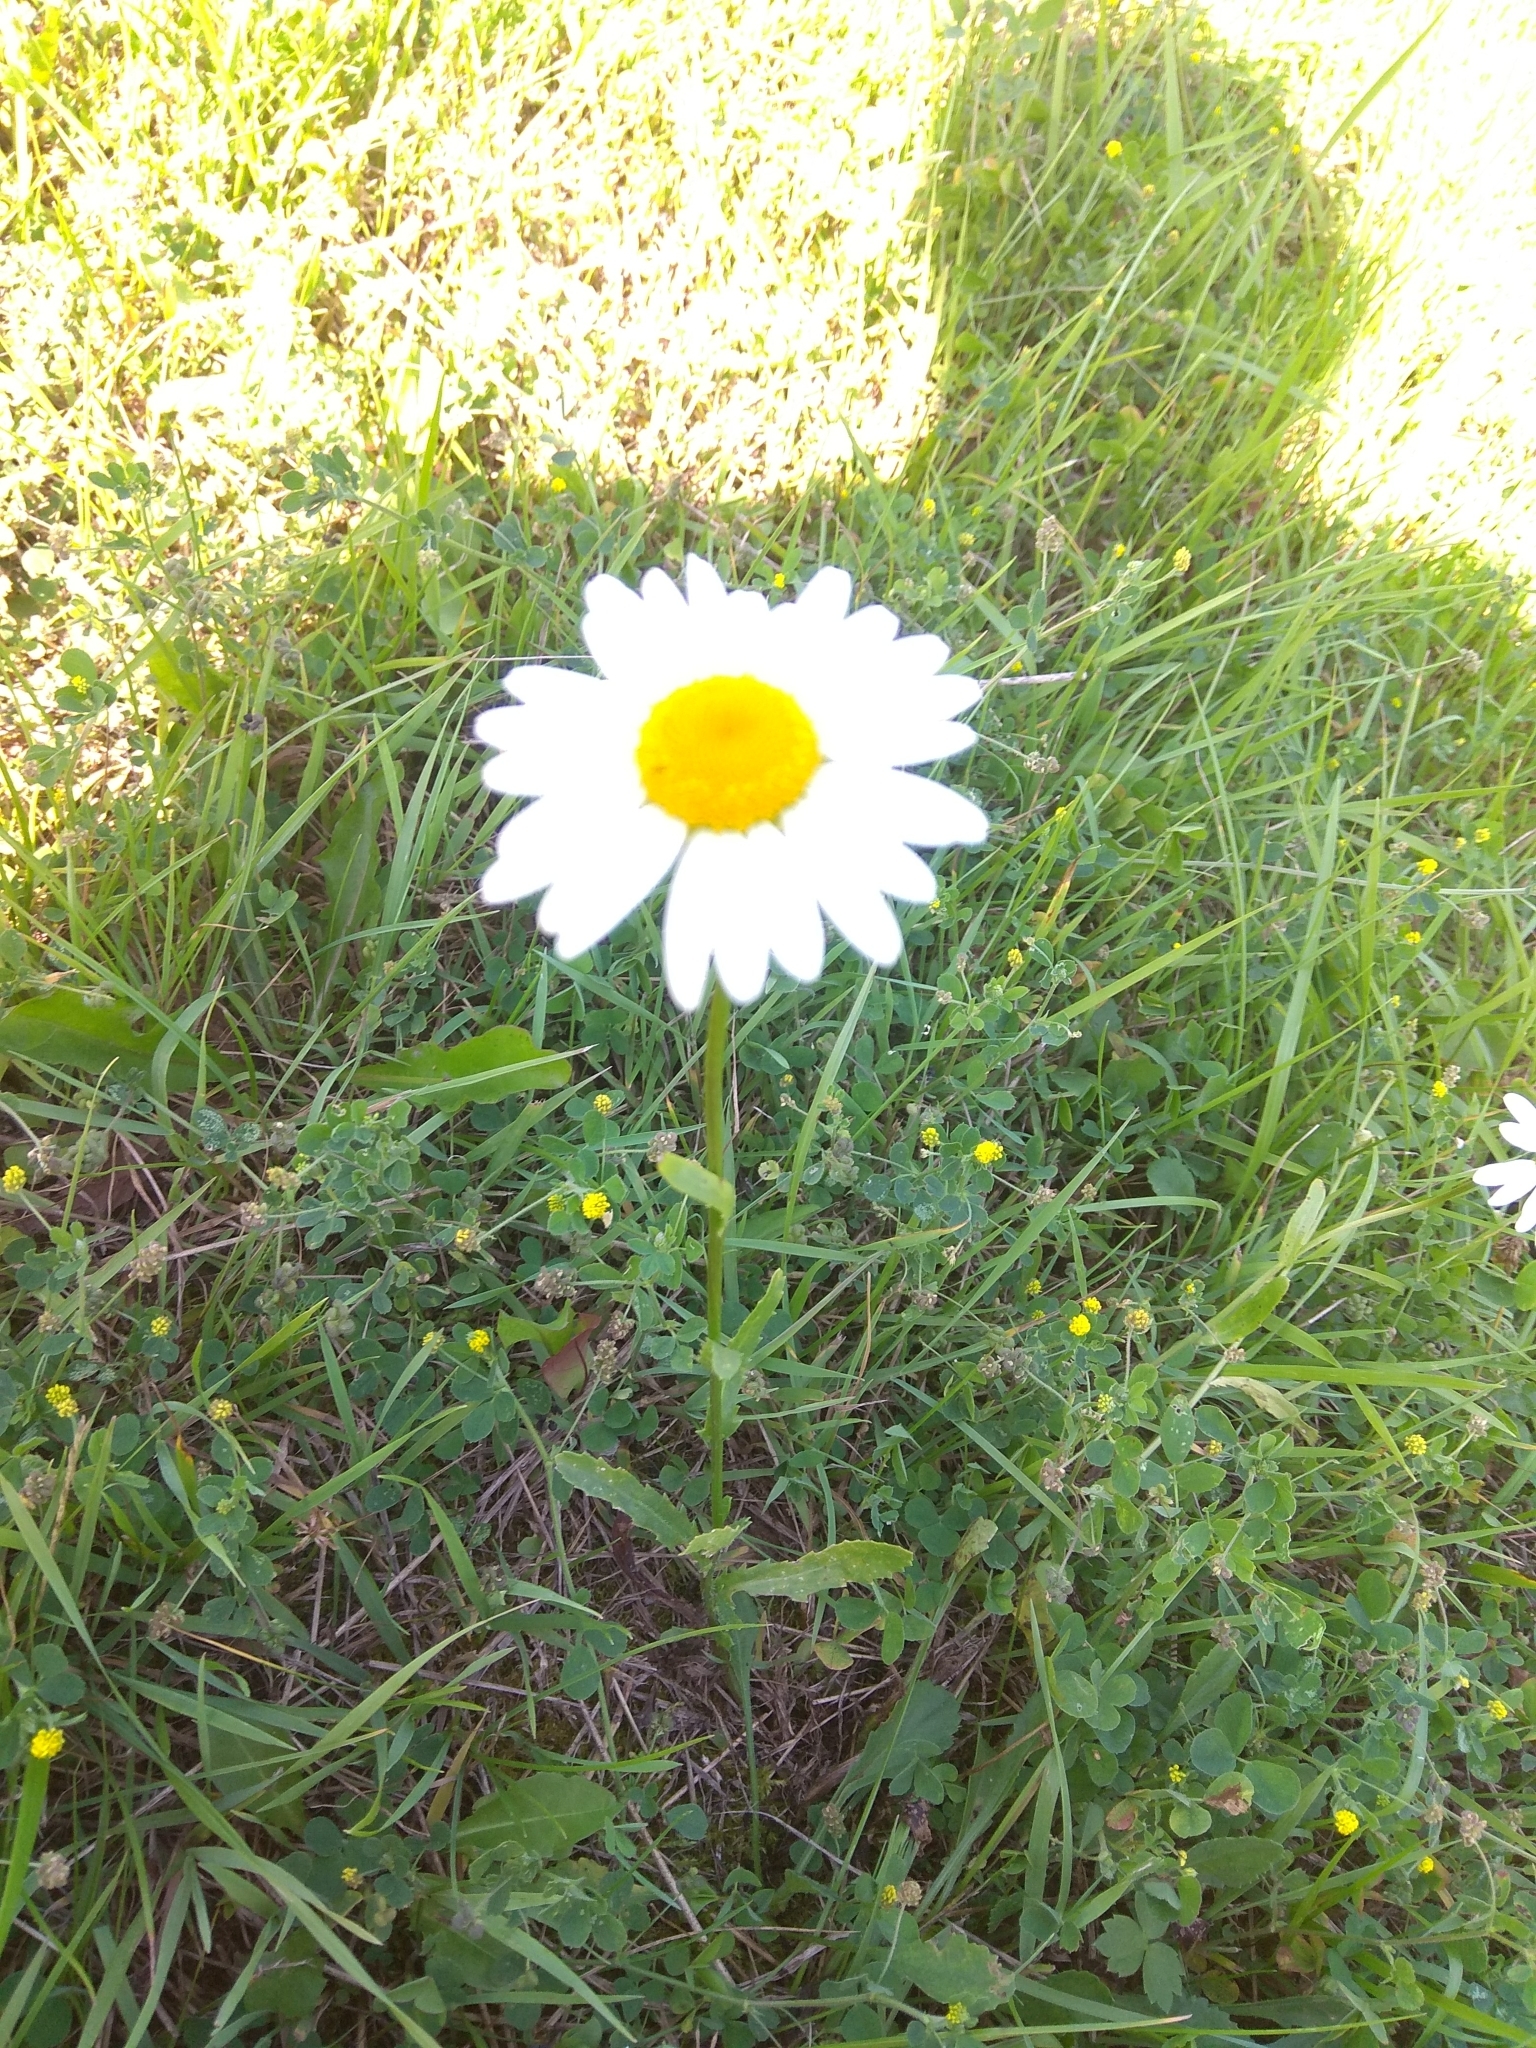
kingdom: Plantae
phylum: Tracheophyta
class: Magnoliopsida
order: Asterales
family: Asteraceae
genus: Leucanthemum
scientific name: Leucanthemum vulgare
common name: Oxeye daisy
